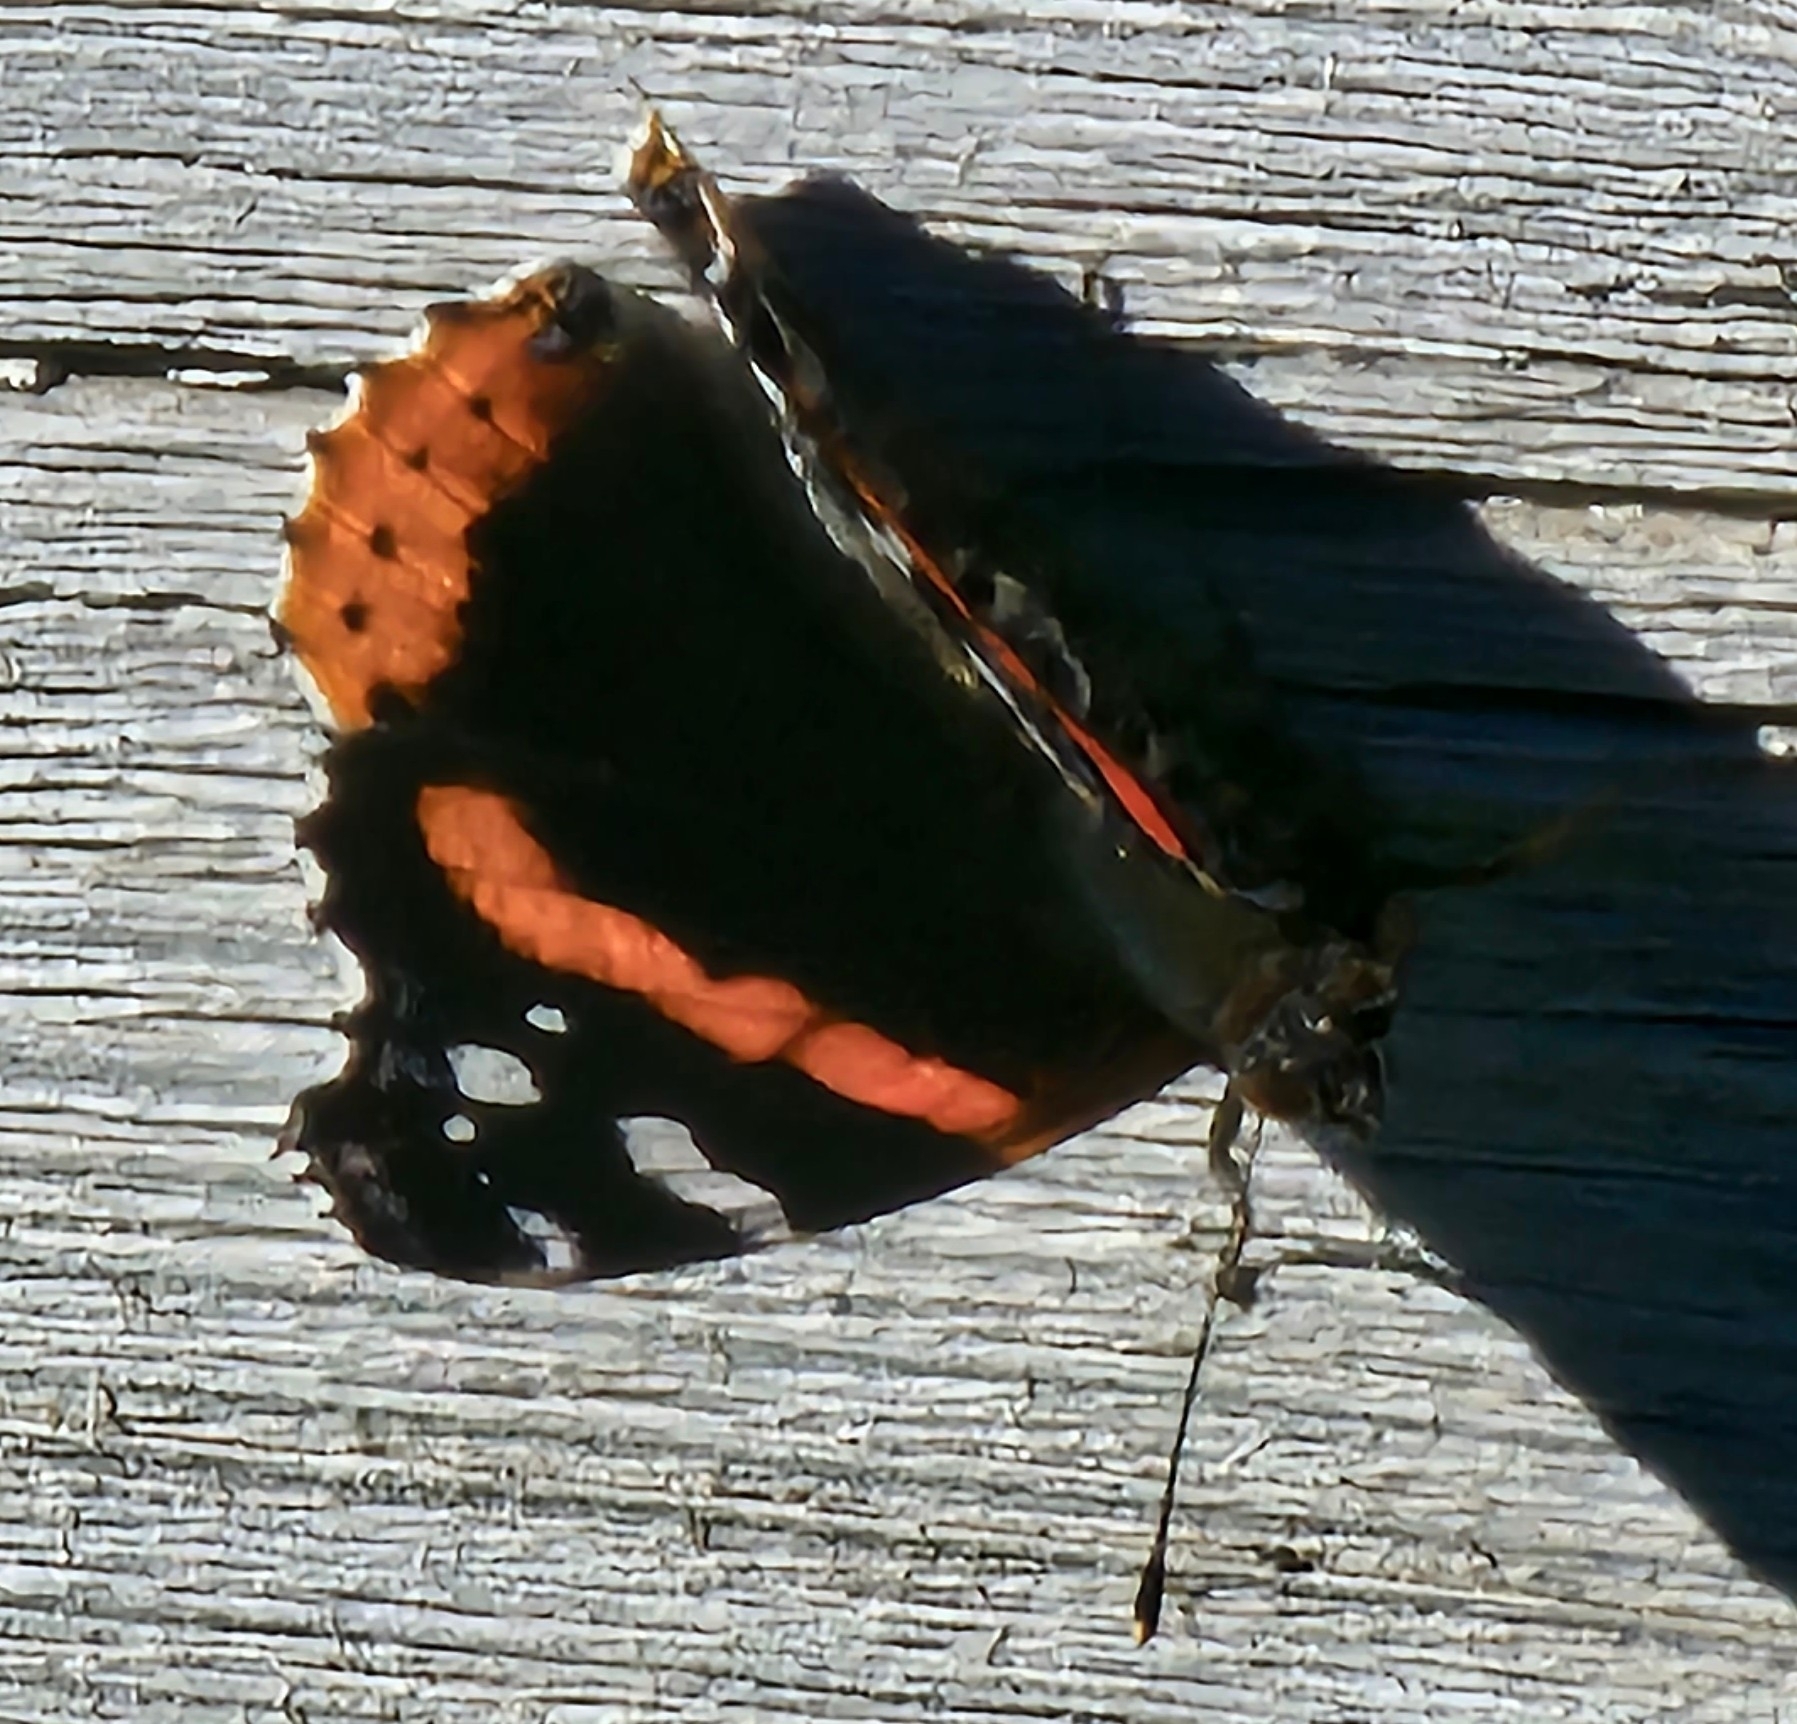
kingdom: Animalia
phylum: Arthropoda
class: Insecta
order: Lepidoptera
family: Nymphalidae
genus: Vanessa
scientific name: Vanessa atalanta
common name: Red admiral
